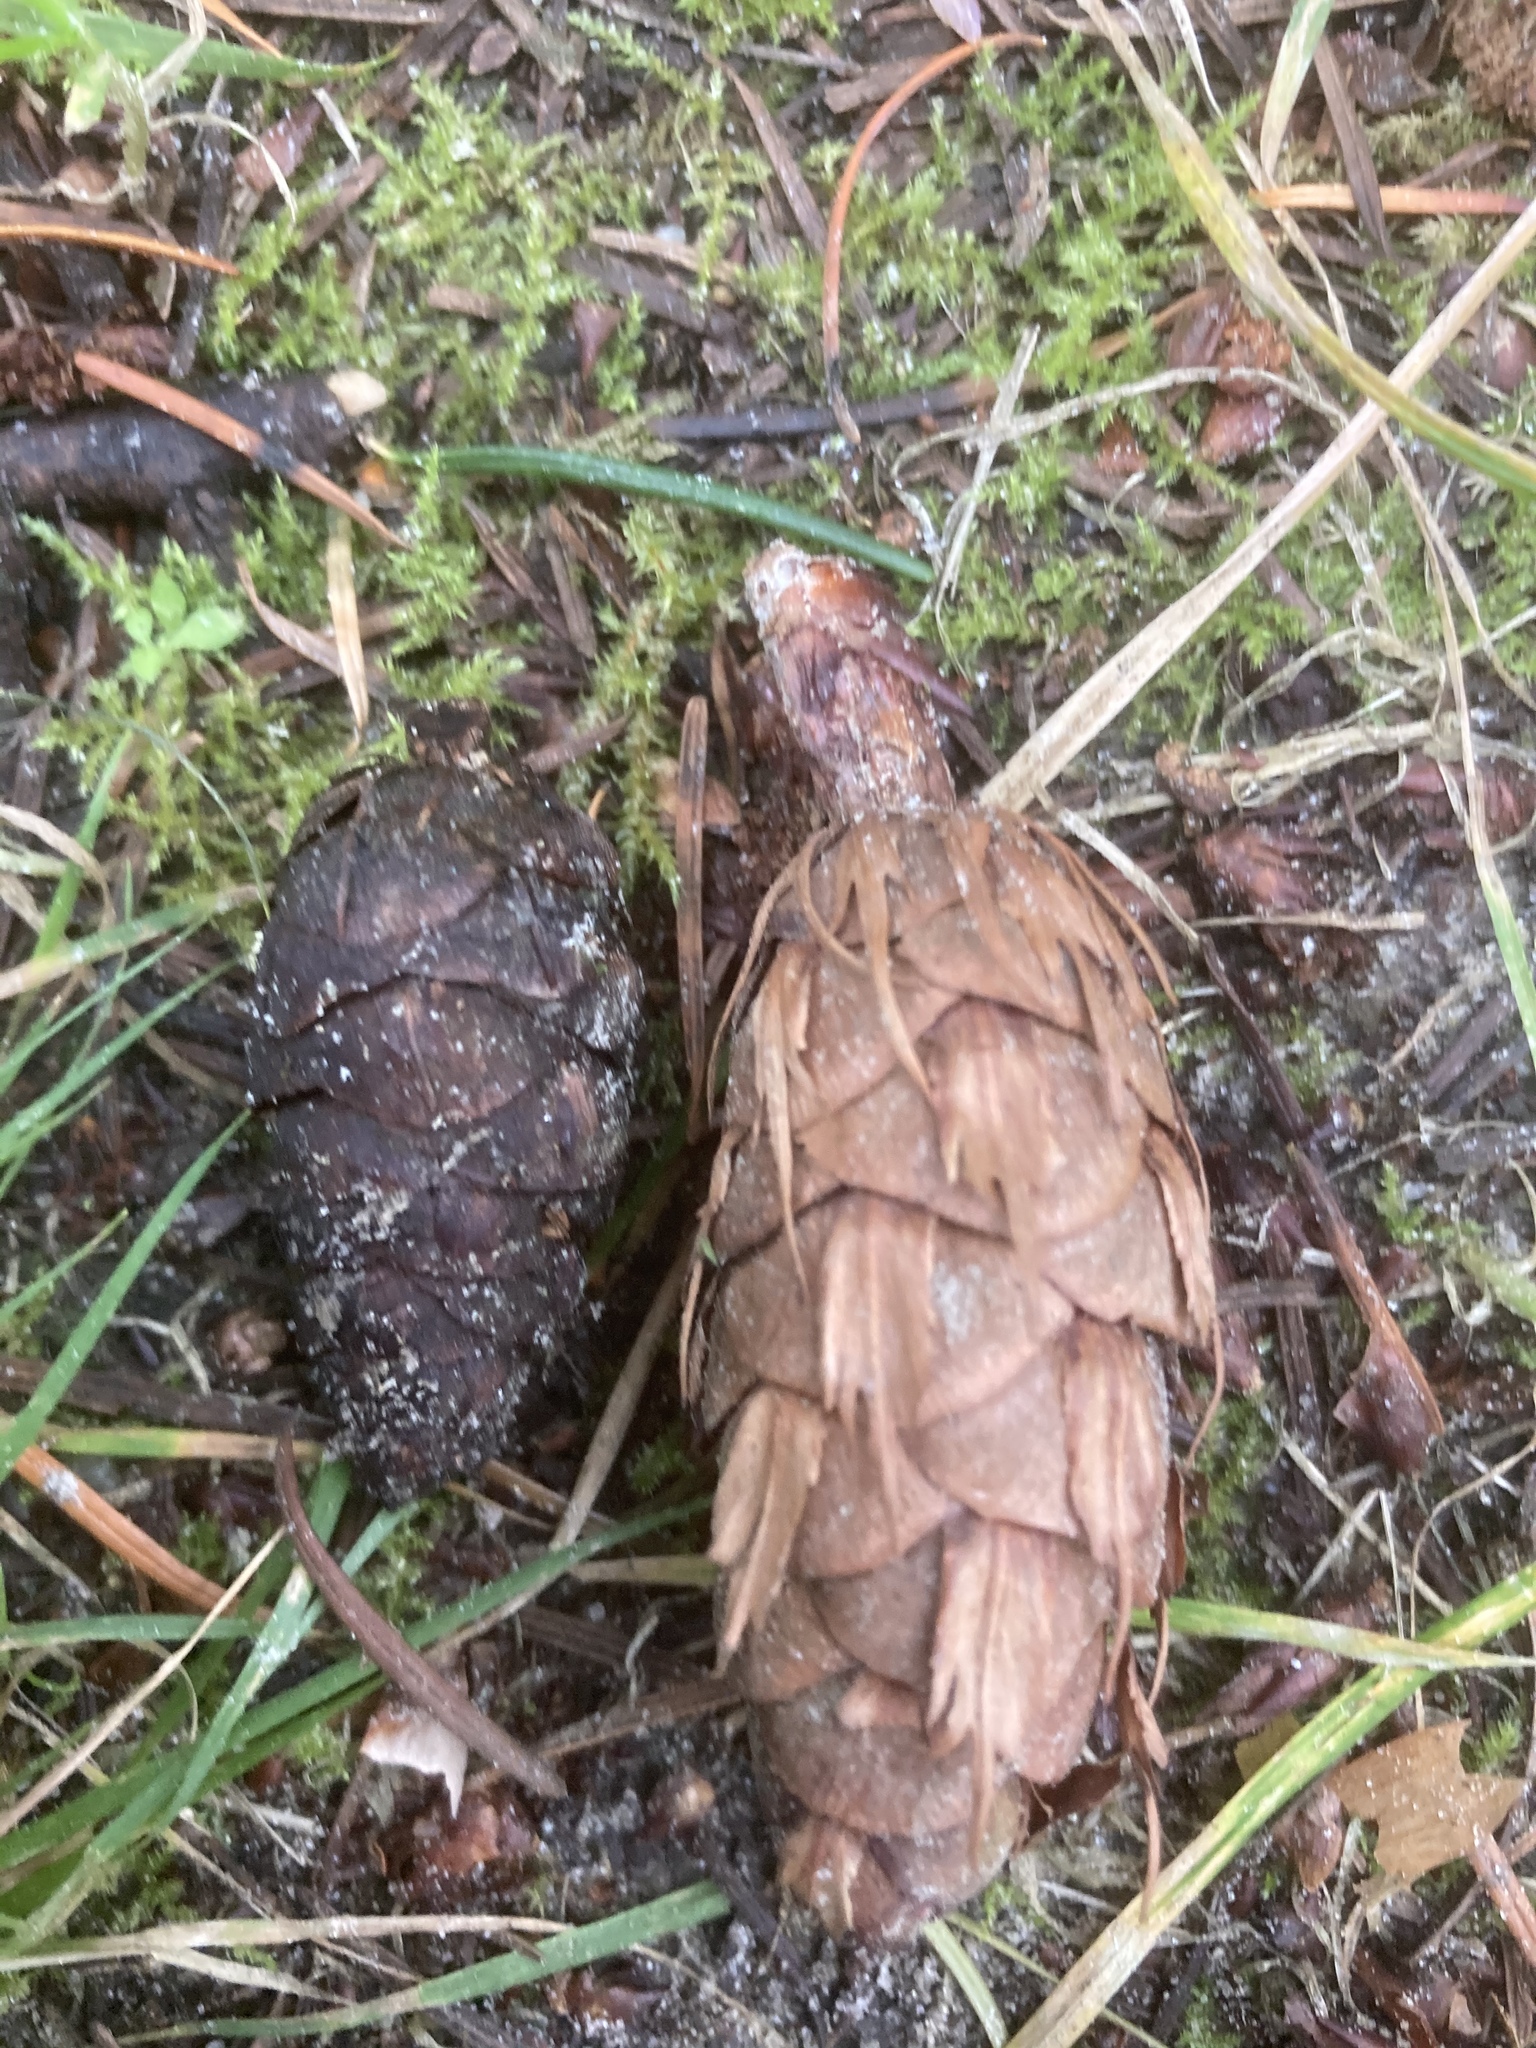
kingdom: Plantae
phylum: Tracheophyta
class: Pinopsida
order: Pinales
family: Pinaceae
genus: Pseudotsuga
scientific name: Pseudotsuga menziesii
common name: Douglas fir
